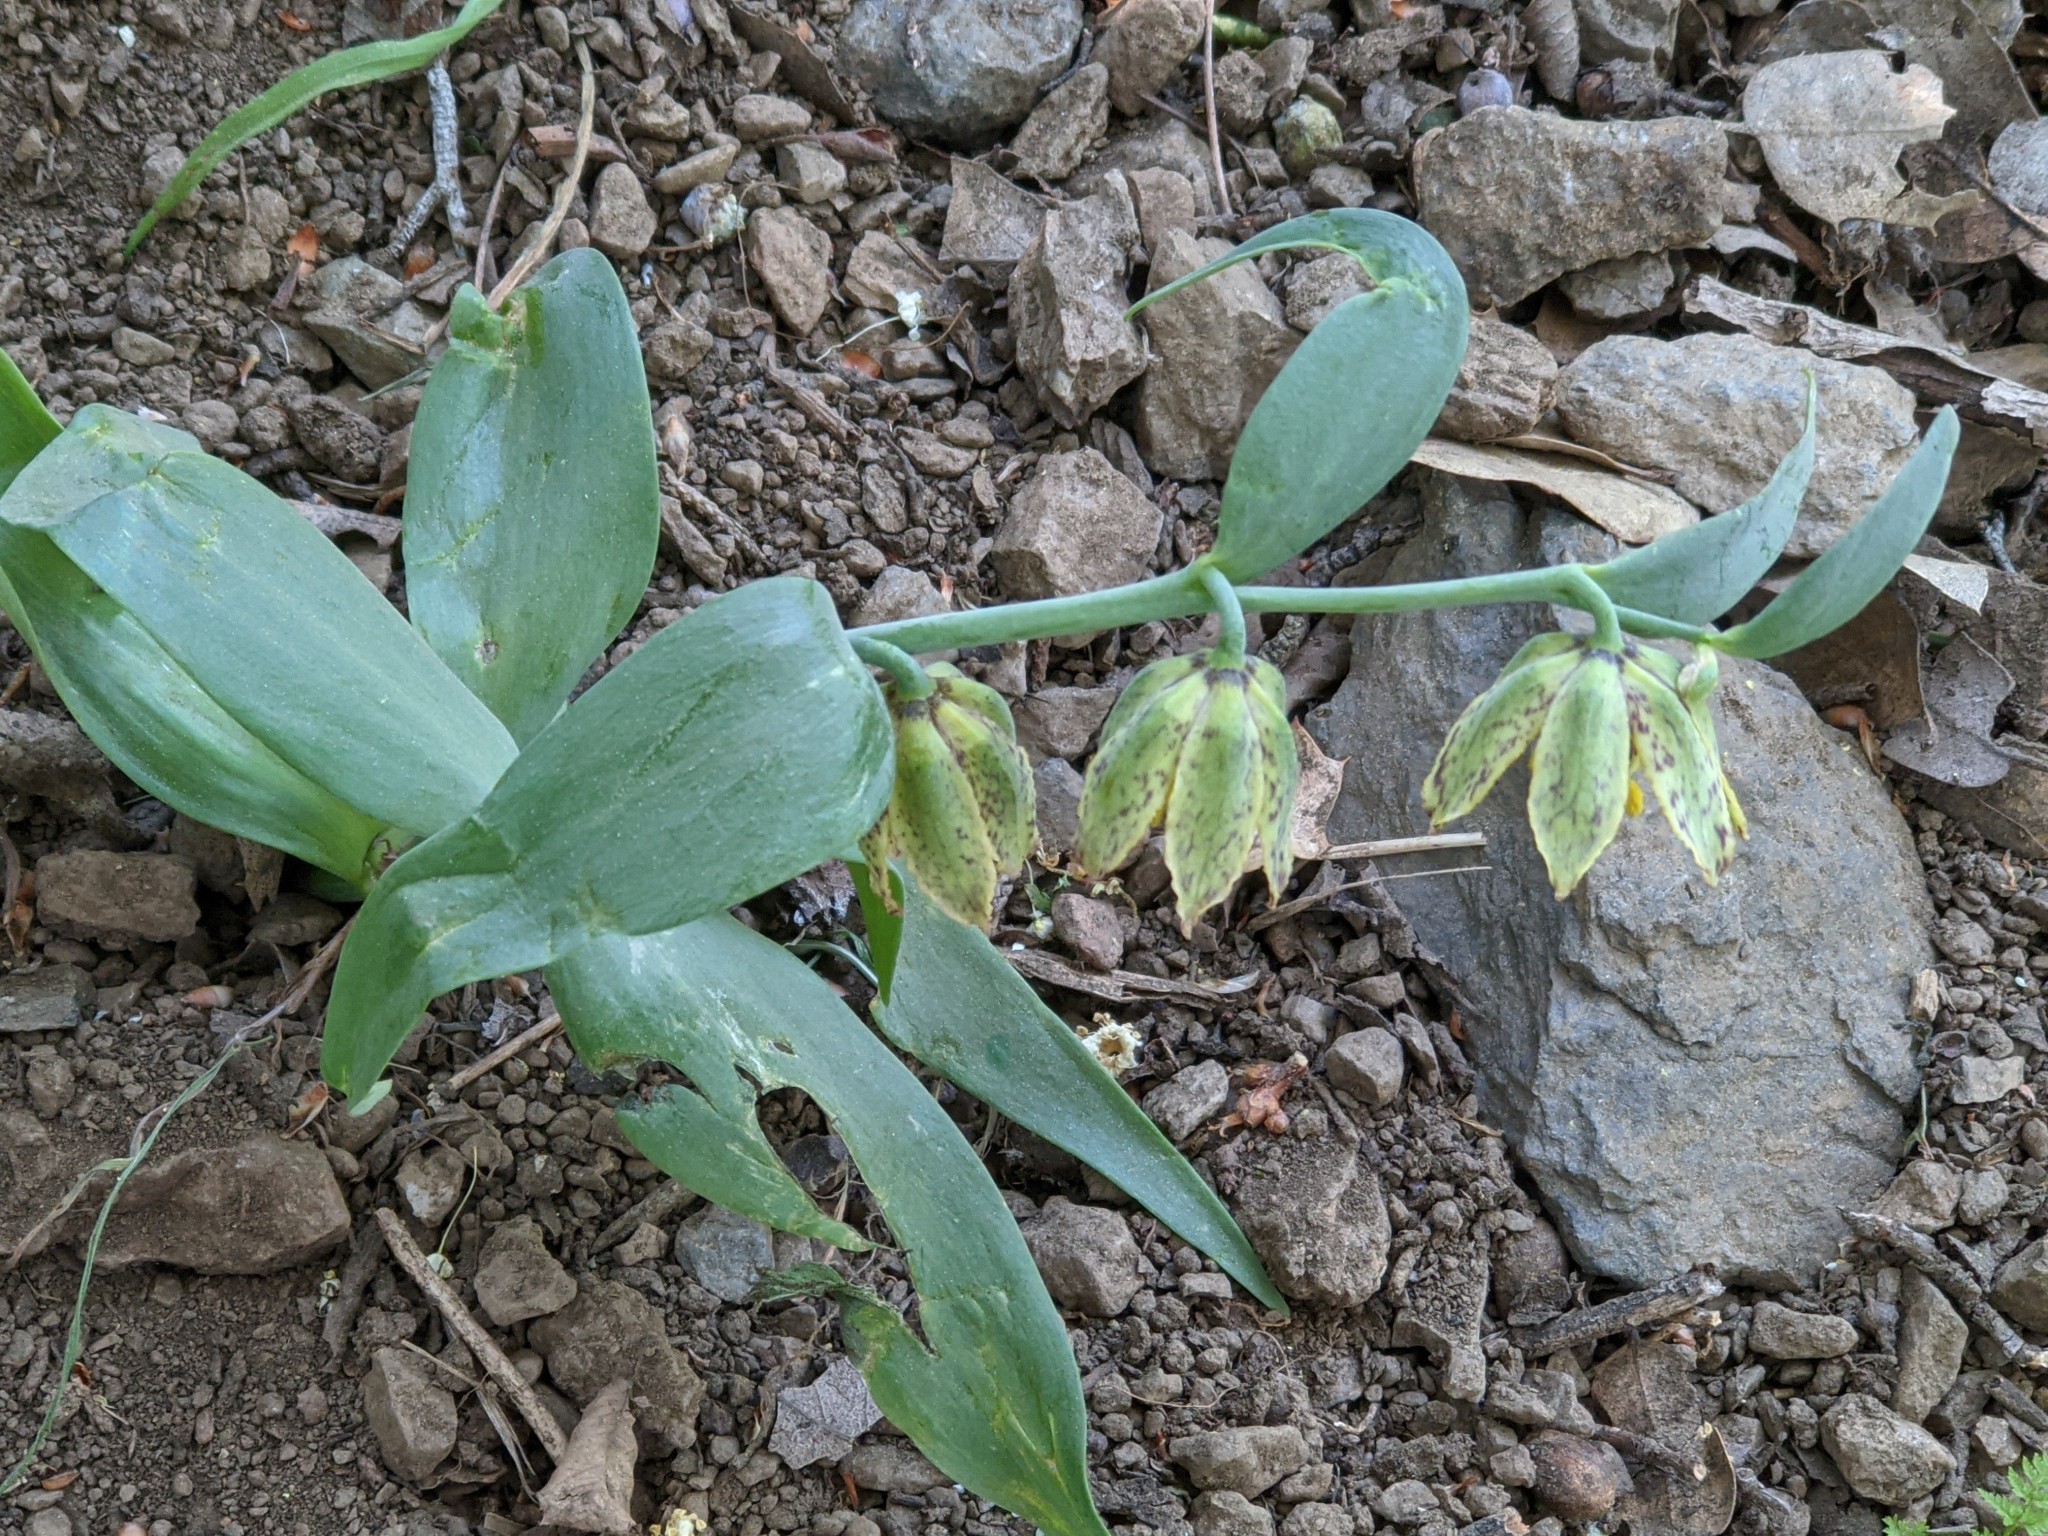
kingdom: Plantae
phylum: Tracheophyta
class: Liliopsida
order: Liliales
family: Liliaceae
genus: Fritillaria
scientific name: Fritillaria affinis
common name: Ojai fritillary
